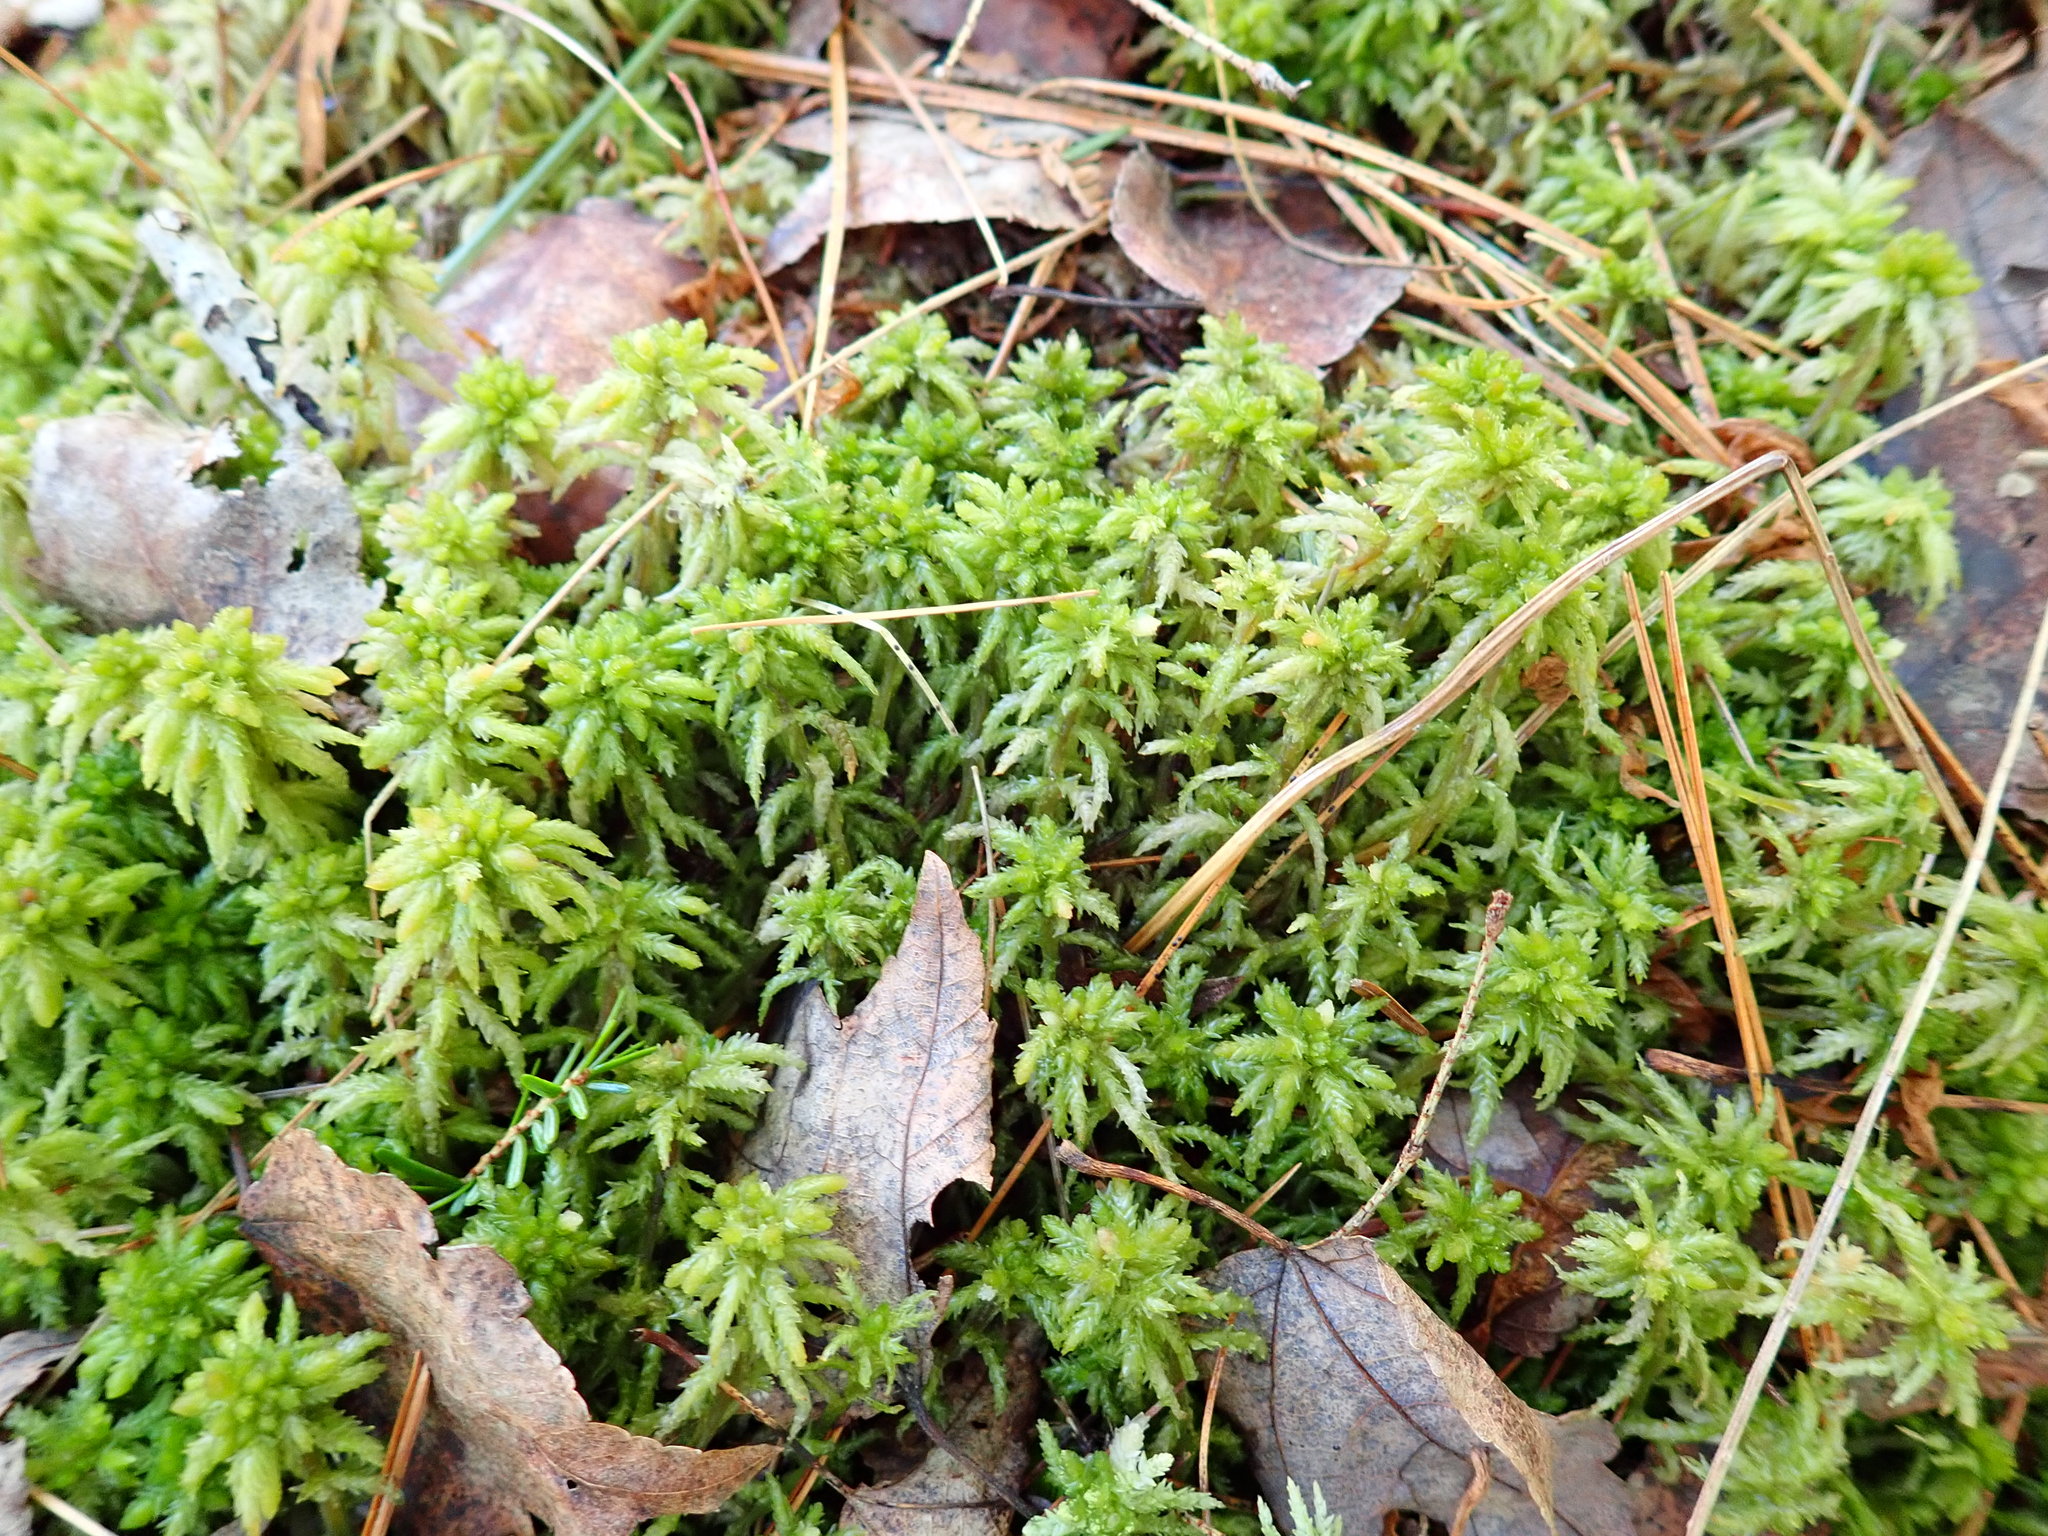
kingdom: Plantae
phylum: Bryophyta
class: Sphagnopsida
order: Sphagnales
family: Sphagnaceae
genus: Sphagnum
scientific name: Sphagnum
